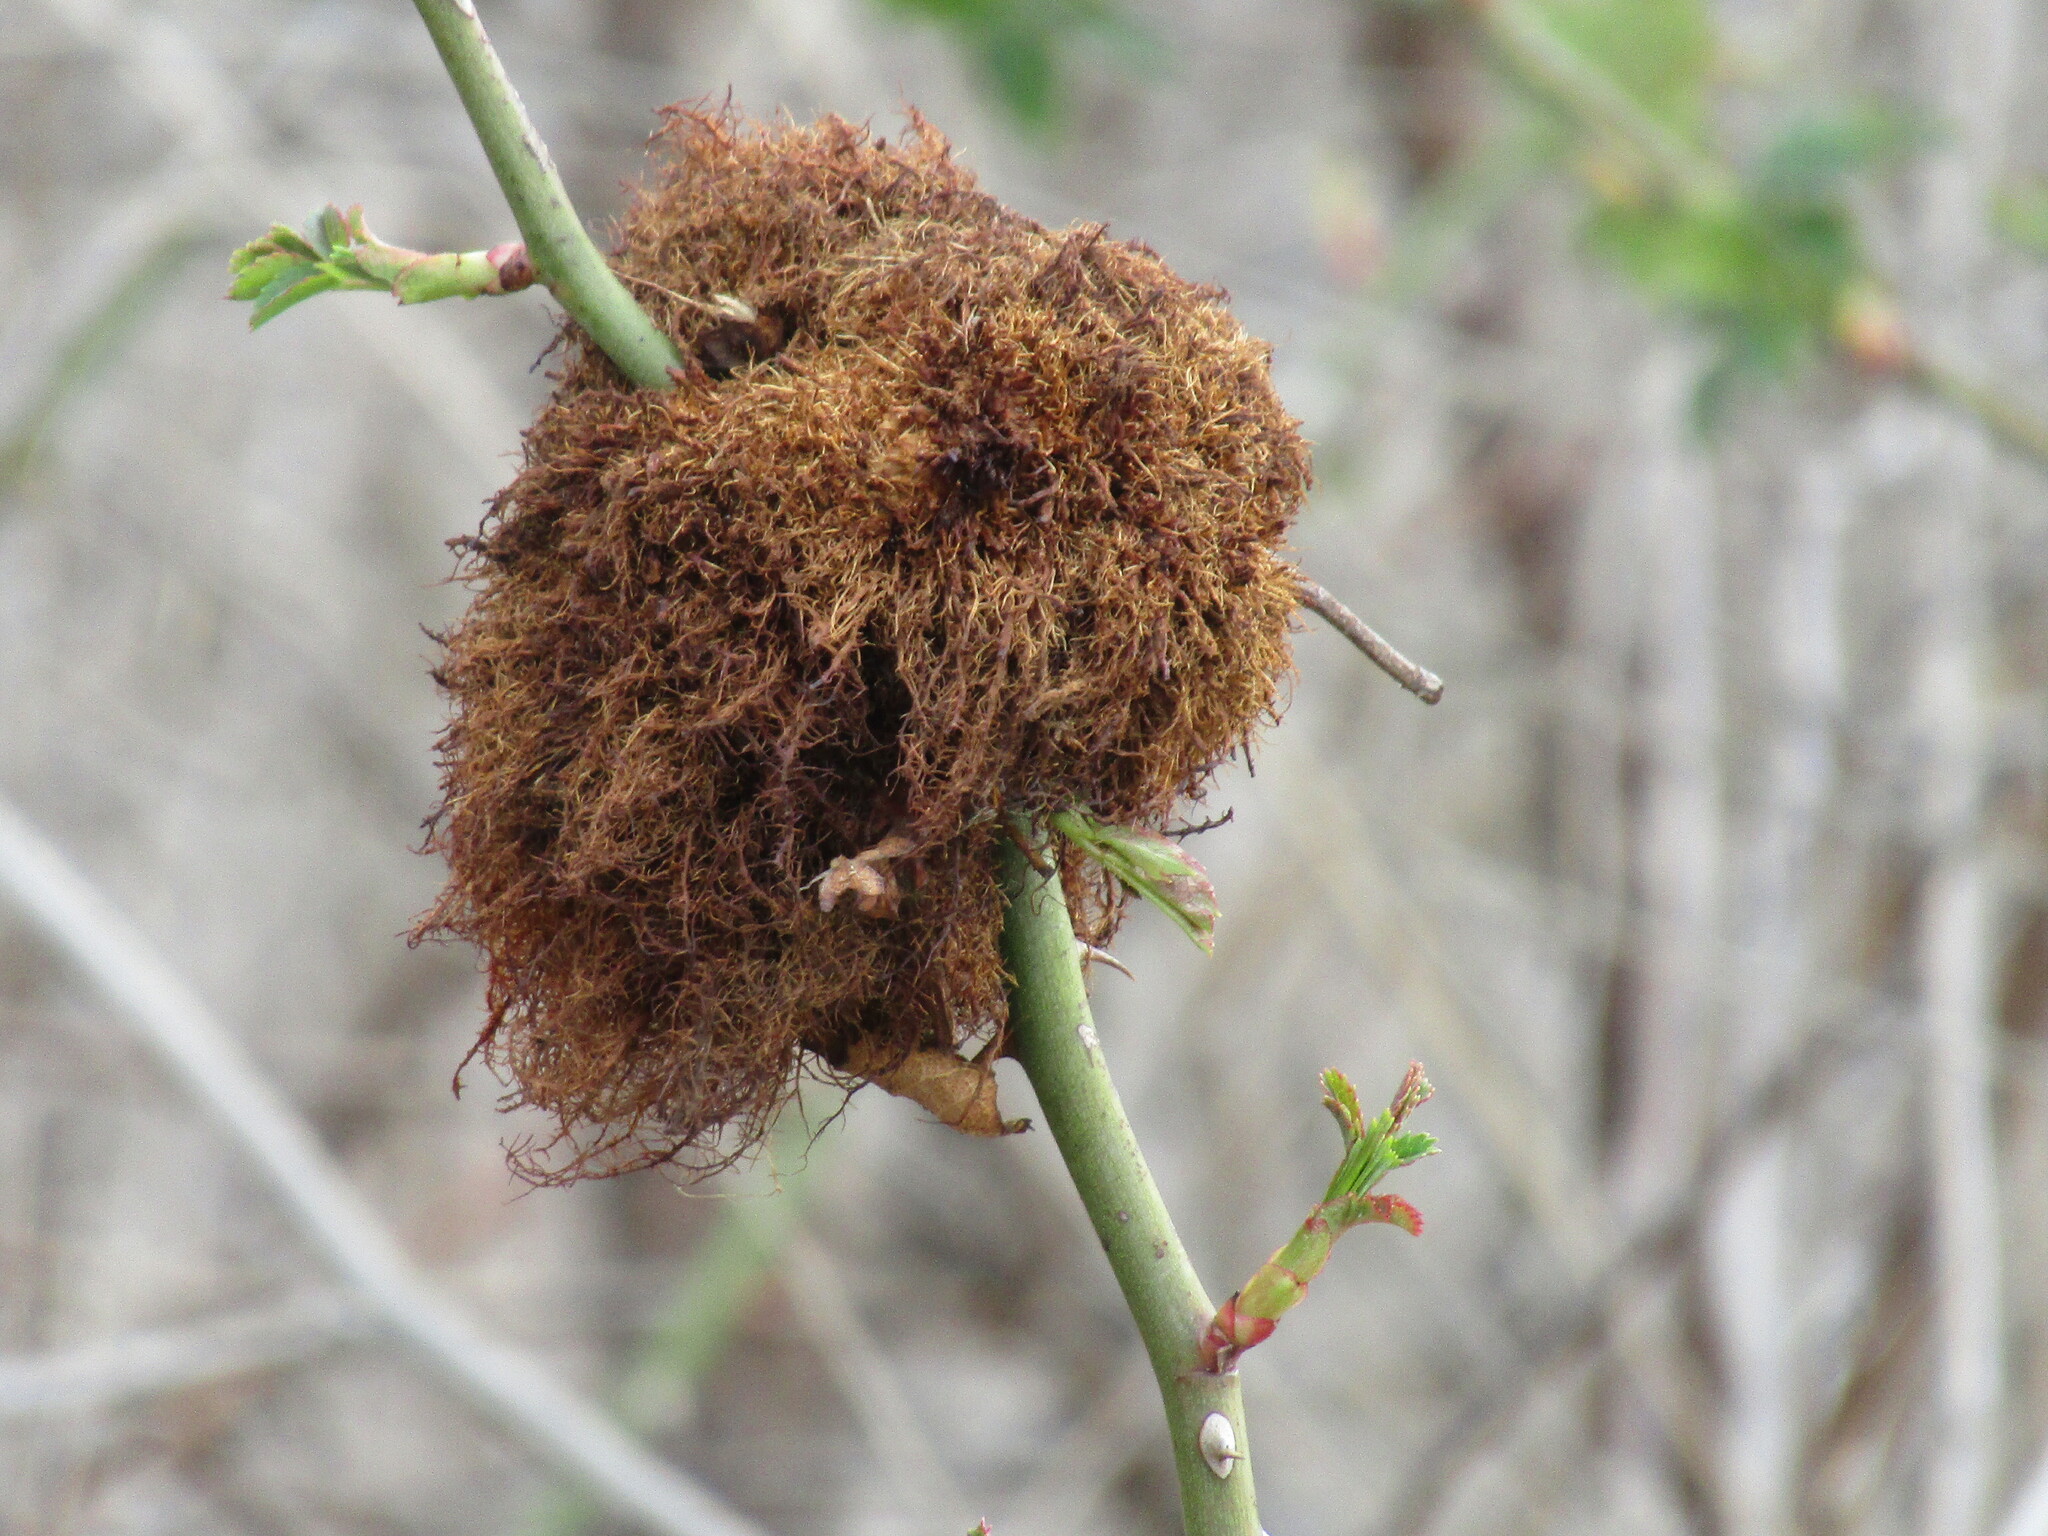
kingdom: Animalia
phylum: Arthropoda
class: Insecta
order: Hymenoptera
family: Cynipidae
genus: Diplolepis
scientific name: Diplolepis rosae
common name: Bedeguar gall
